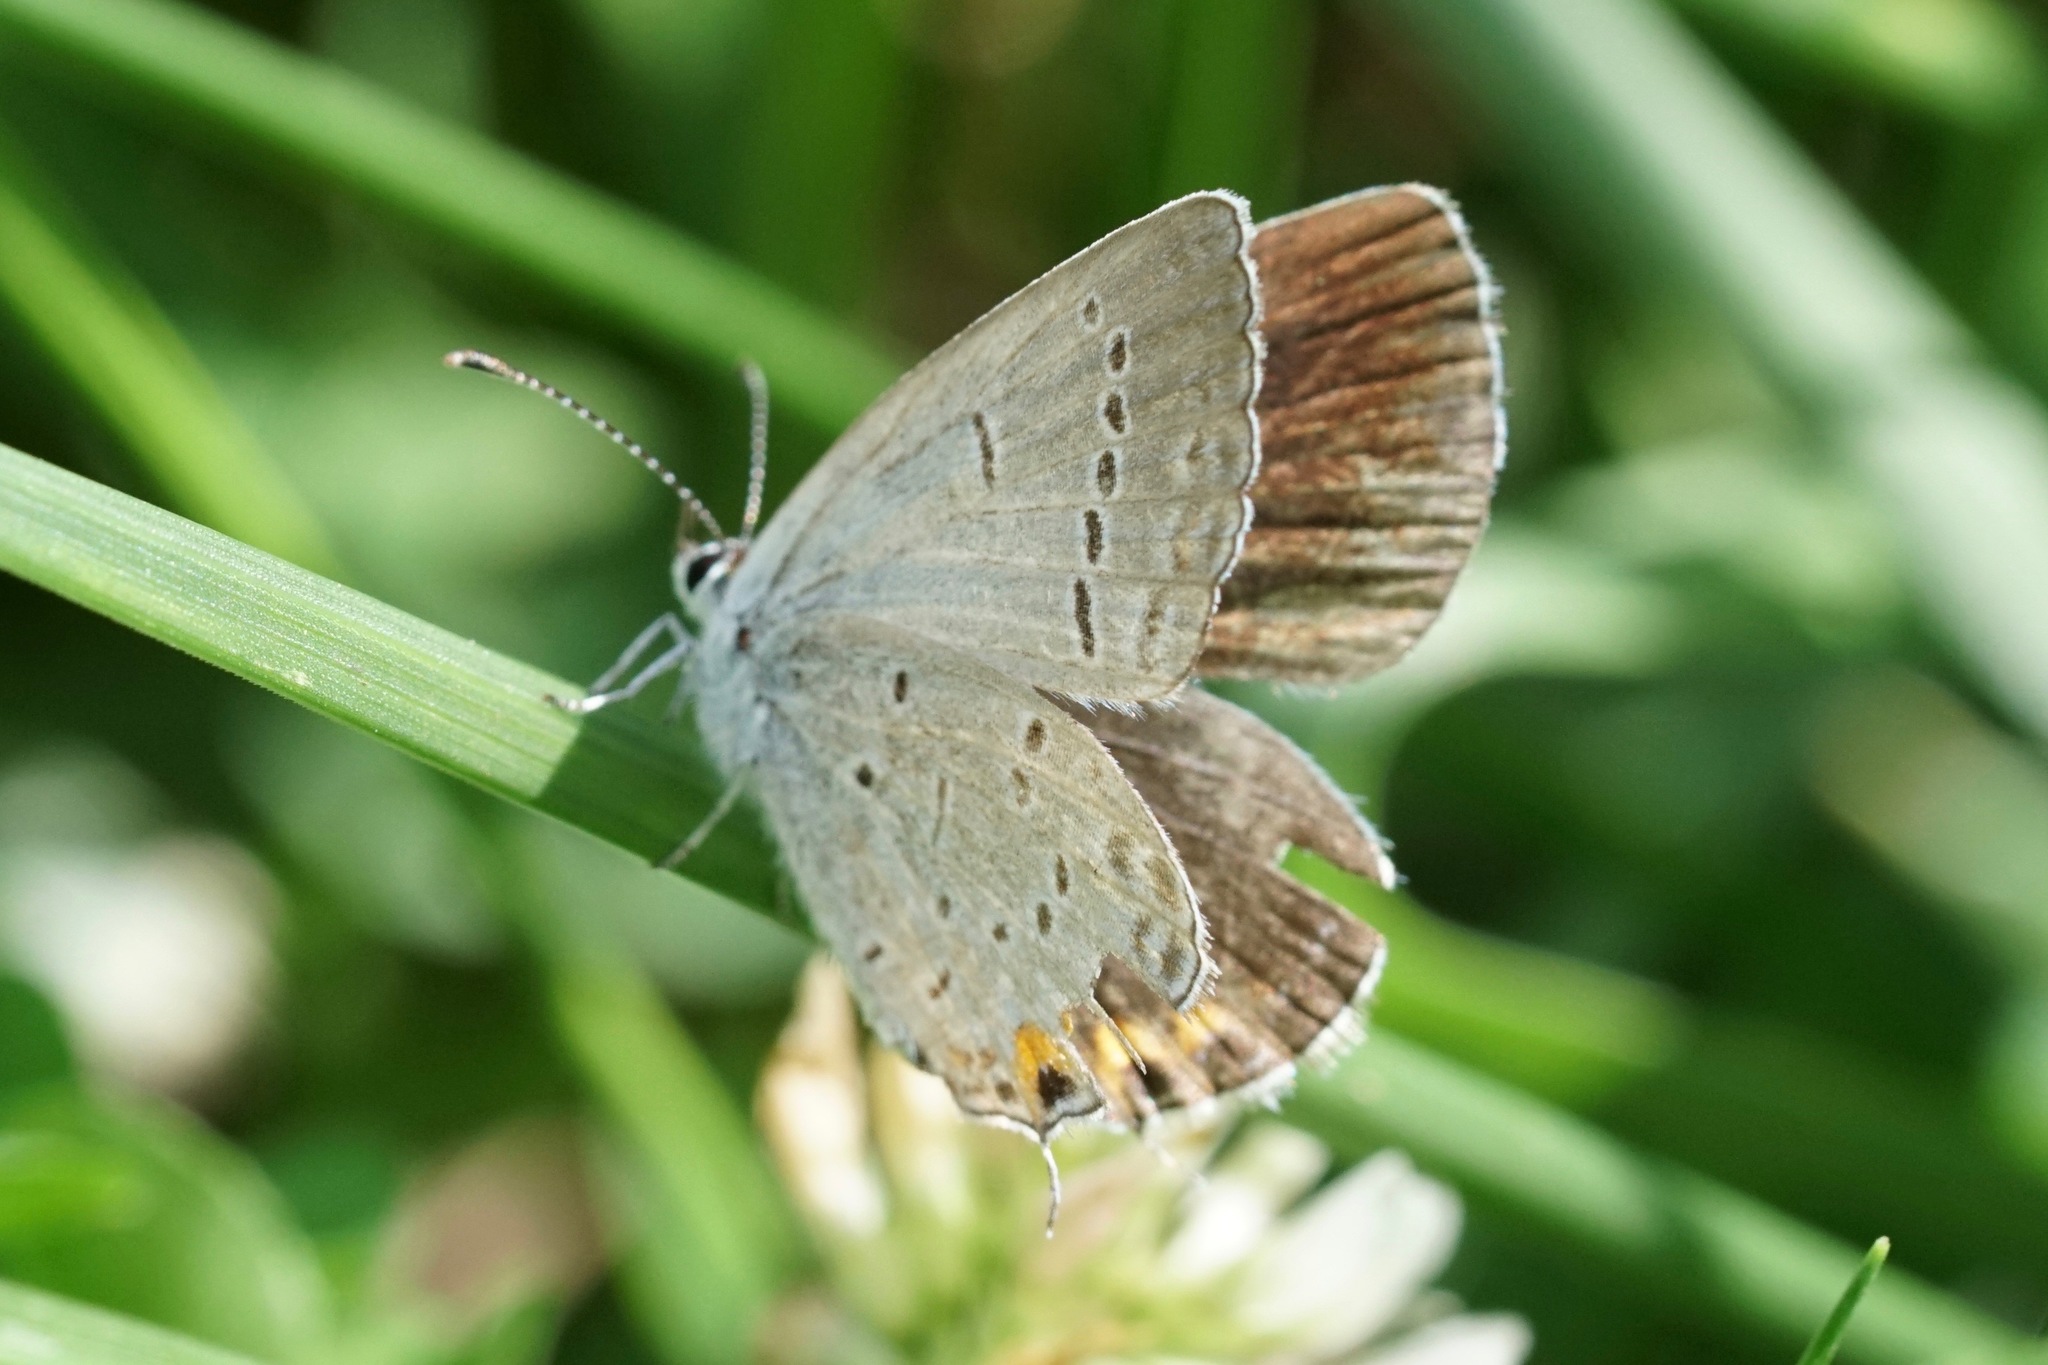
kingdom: Animalia
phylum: Arthropoda
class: Insecta
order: Lepidoptera
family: Lycaenidae
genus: Elkalyce
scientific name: Elkalyce comyntas
